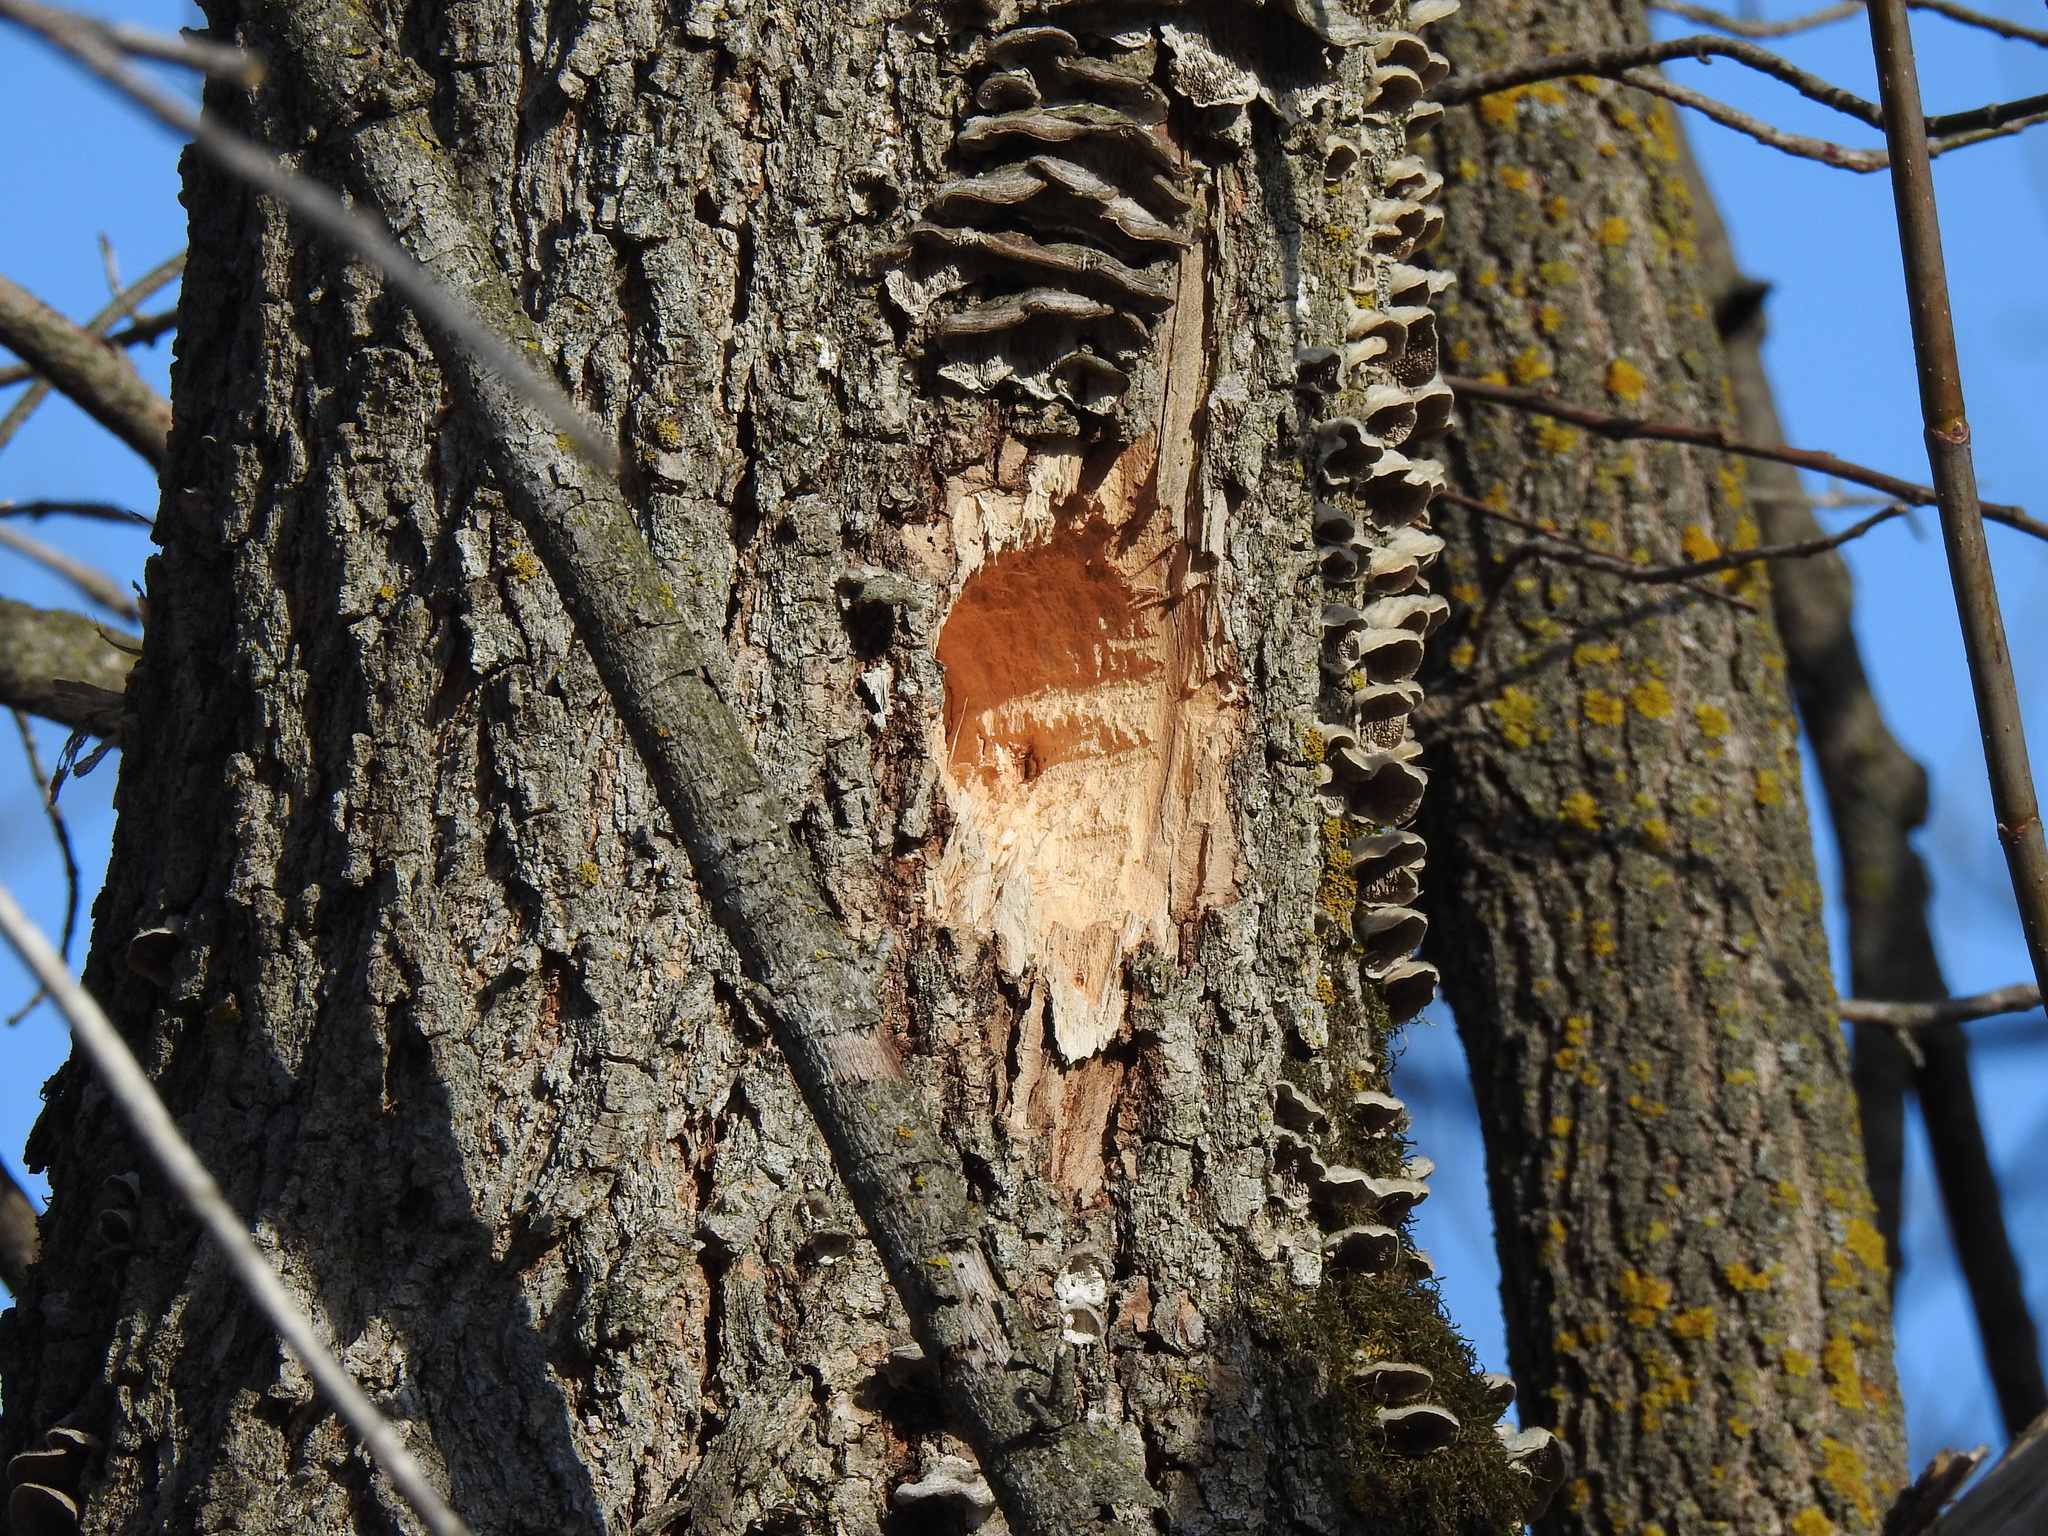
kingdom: Animalia
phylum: Chordata
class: Aves
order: Piciformes
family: Picidae
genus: Dryocopus
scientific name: Dryocopus pileatus
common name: Pileated woodpecker
